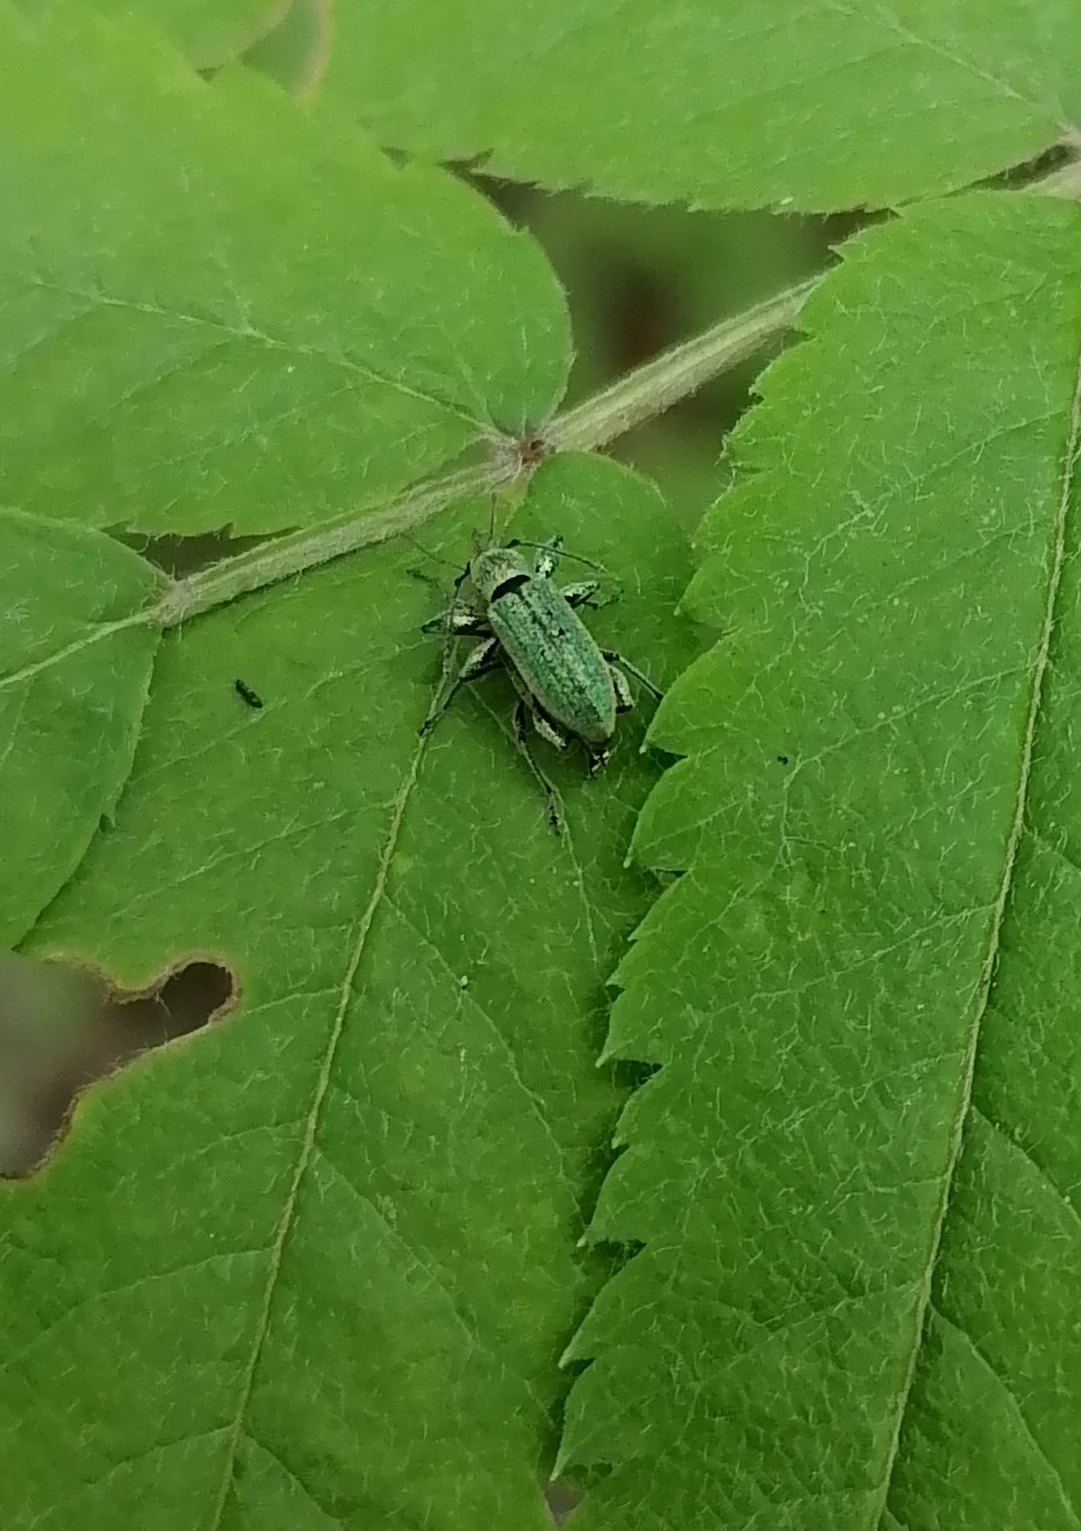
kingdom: Animalia
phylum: Arthropoda
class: Insecta
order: Coleoptera
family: Curculionidae
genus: Phyllobius
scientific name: Phyllobius arborator
